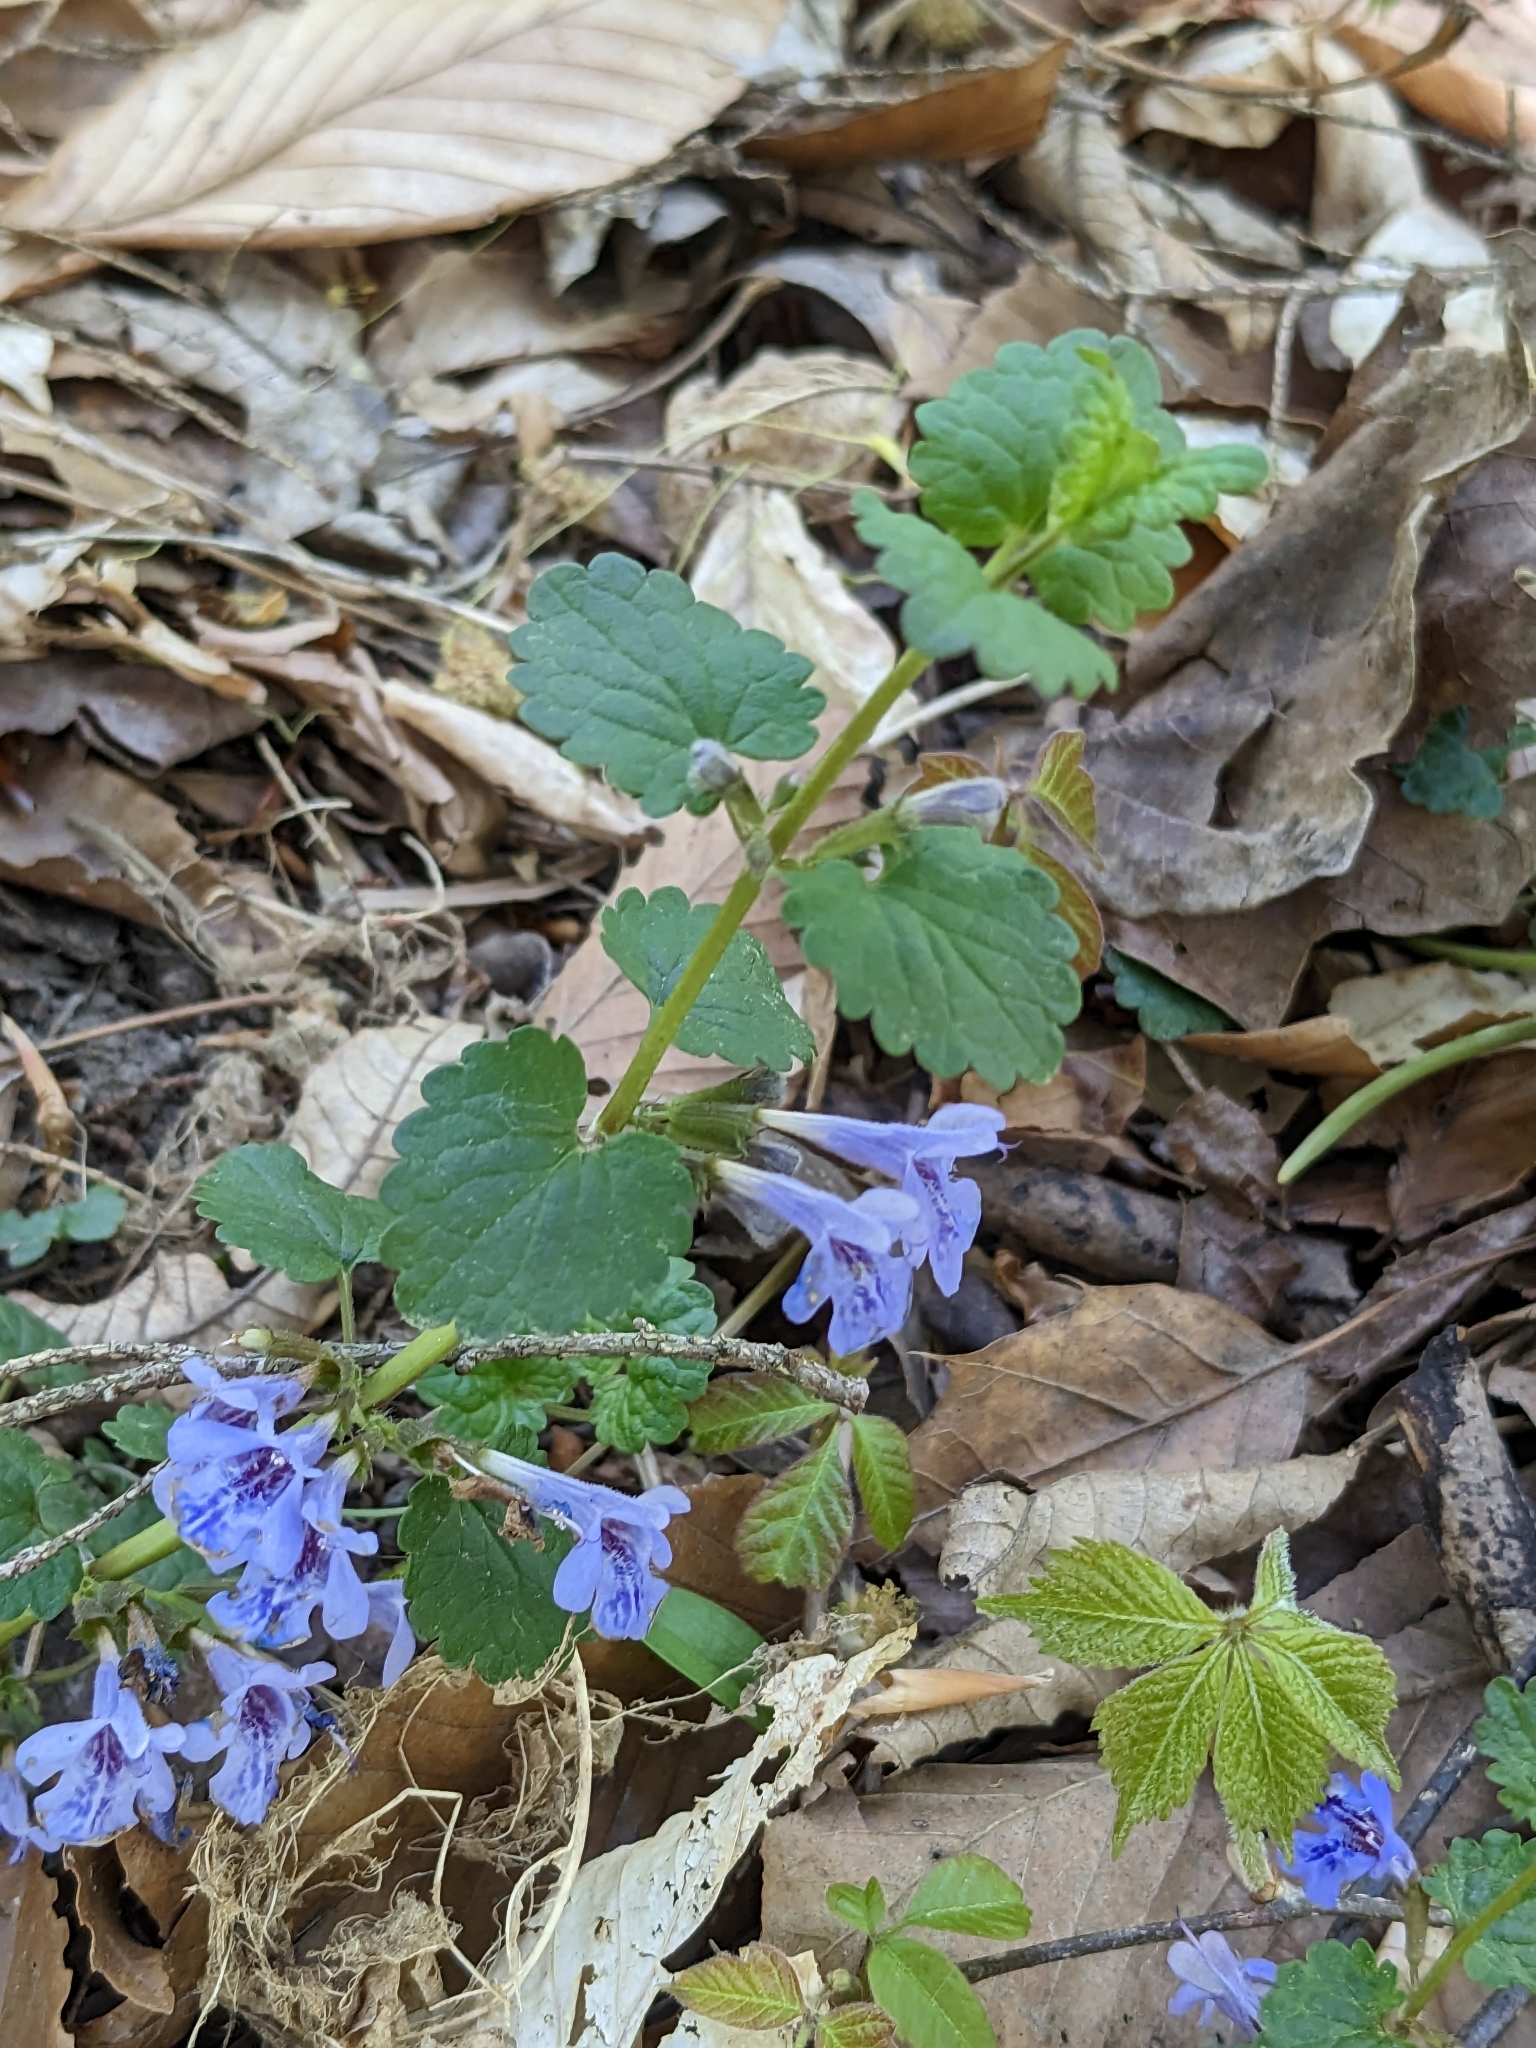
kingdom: Plantae
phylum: Tracheophyta
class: Magnoliopsida
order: Lamiales
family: Lamiaceae
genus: Glechoma
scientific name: Glechoma hederacea
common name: Ground ivy
